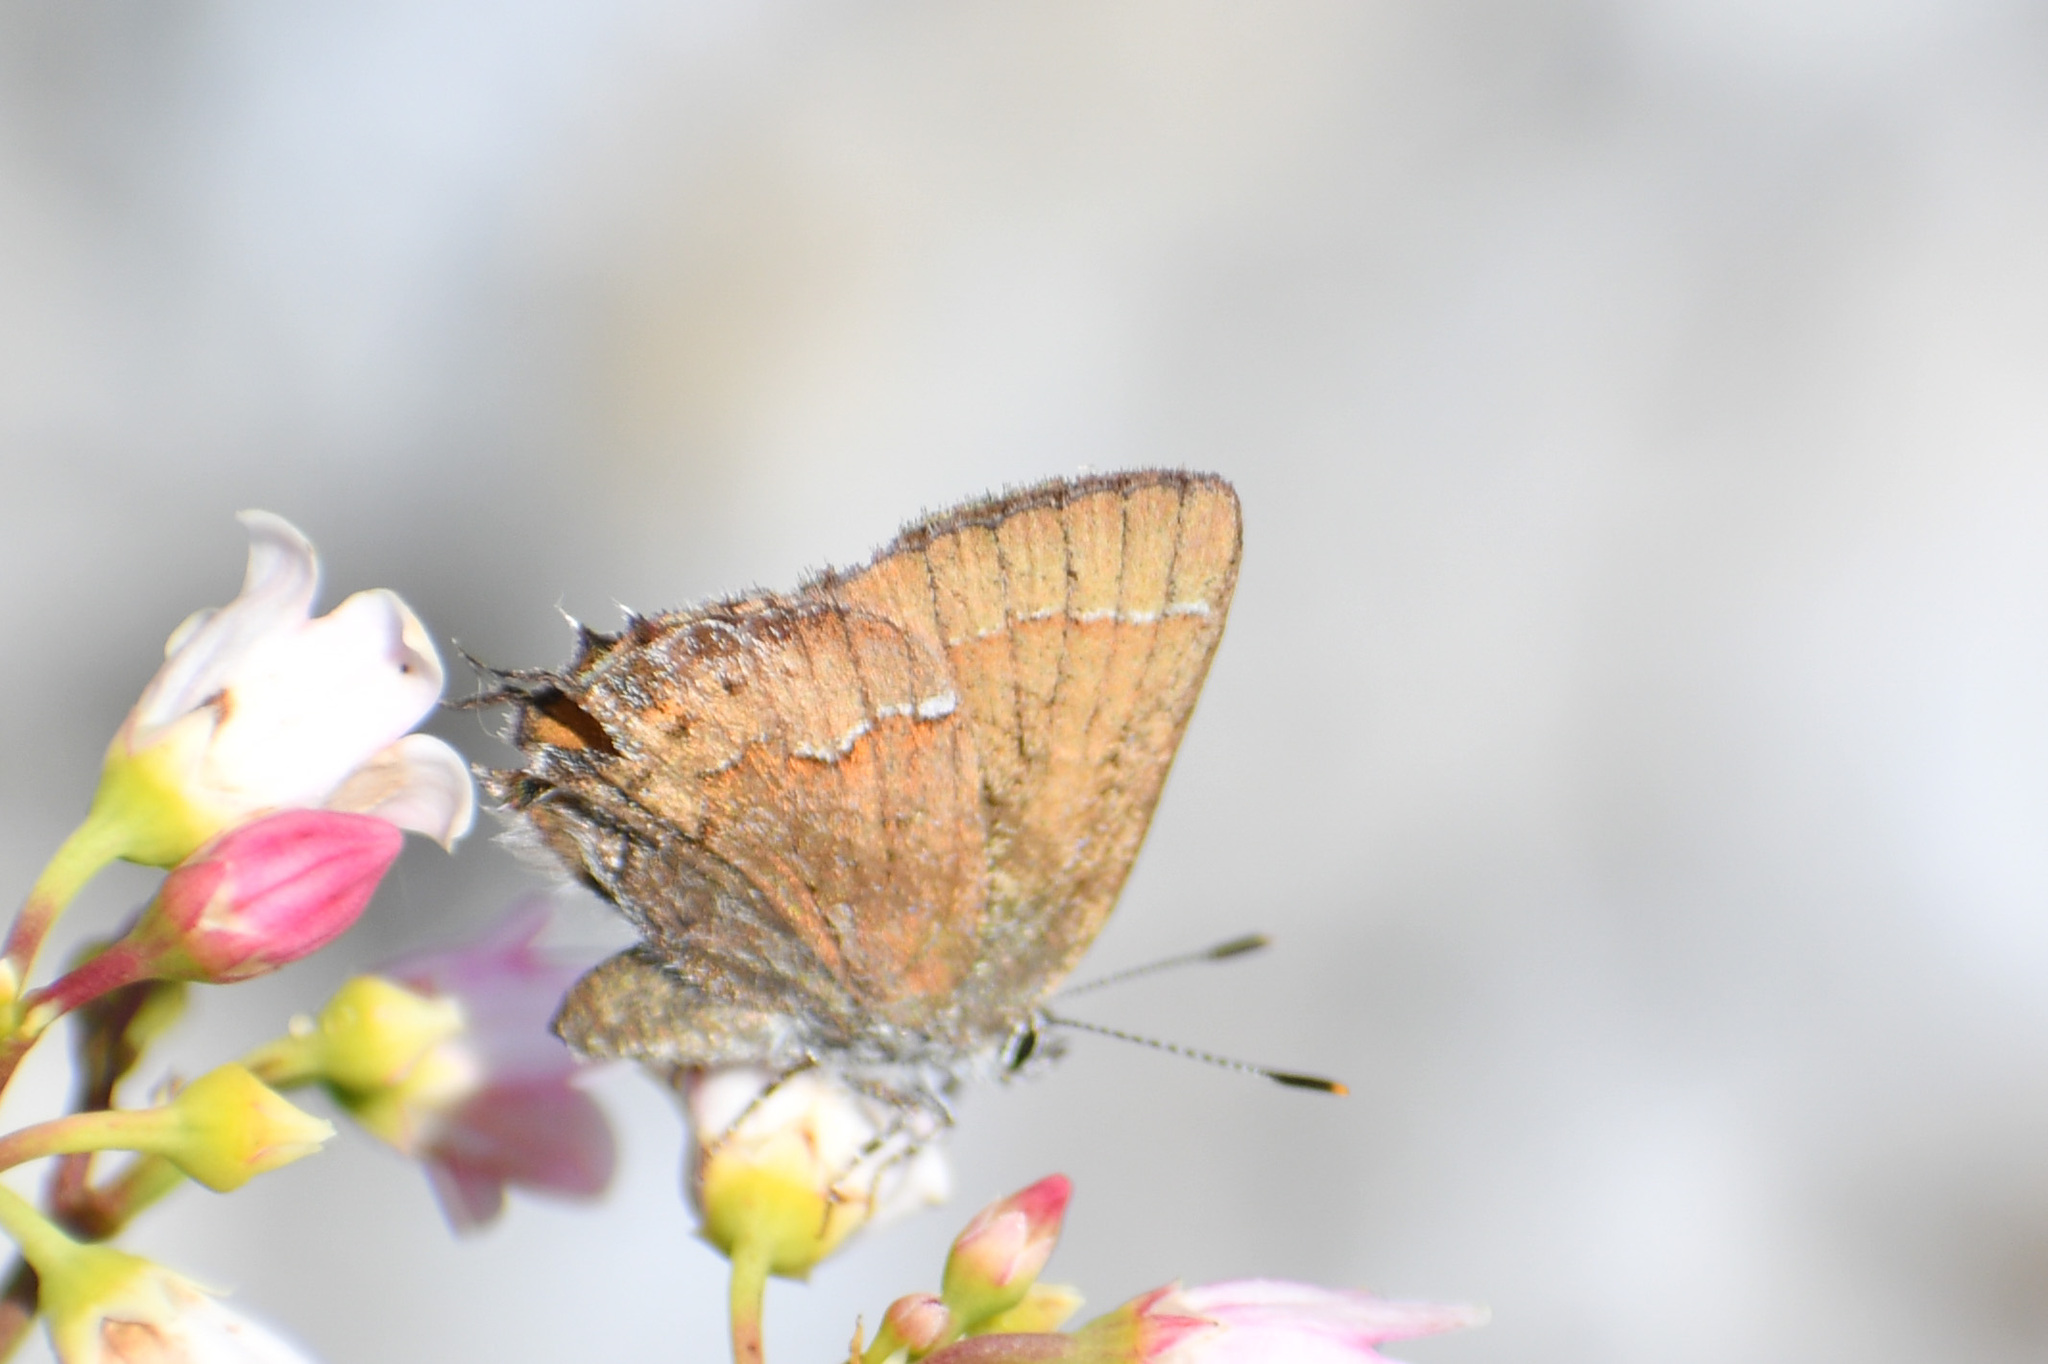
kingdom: Animalia
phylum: Arthropoda
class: Insecta
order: Lepidoptera
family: Lycaenidae
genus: Mitoura
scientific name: Mitoura gryneus
